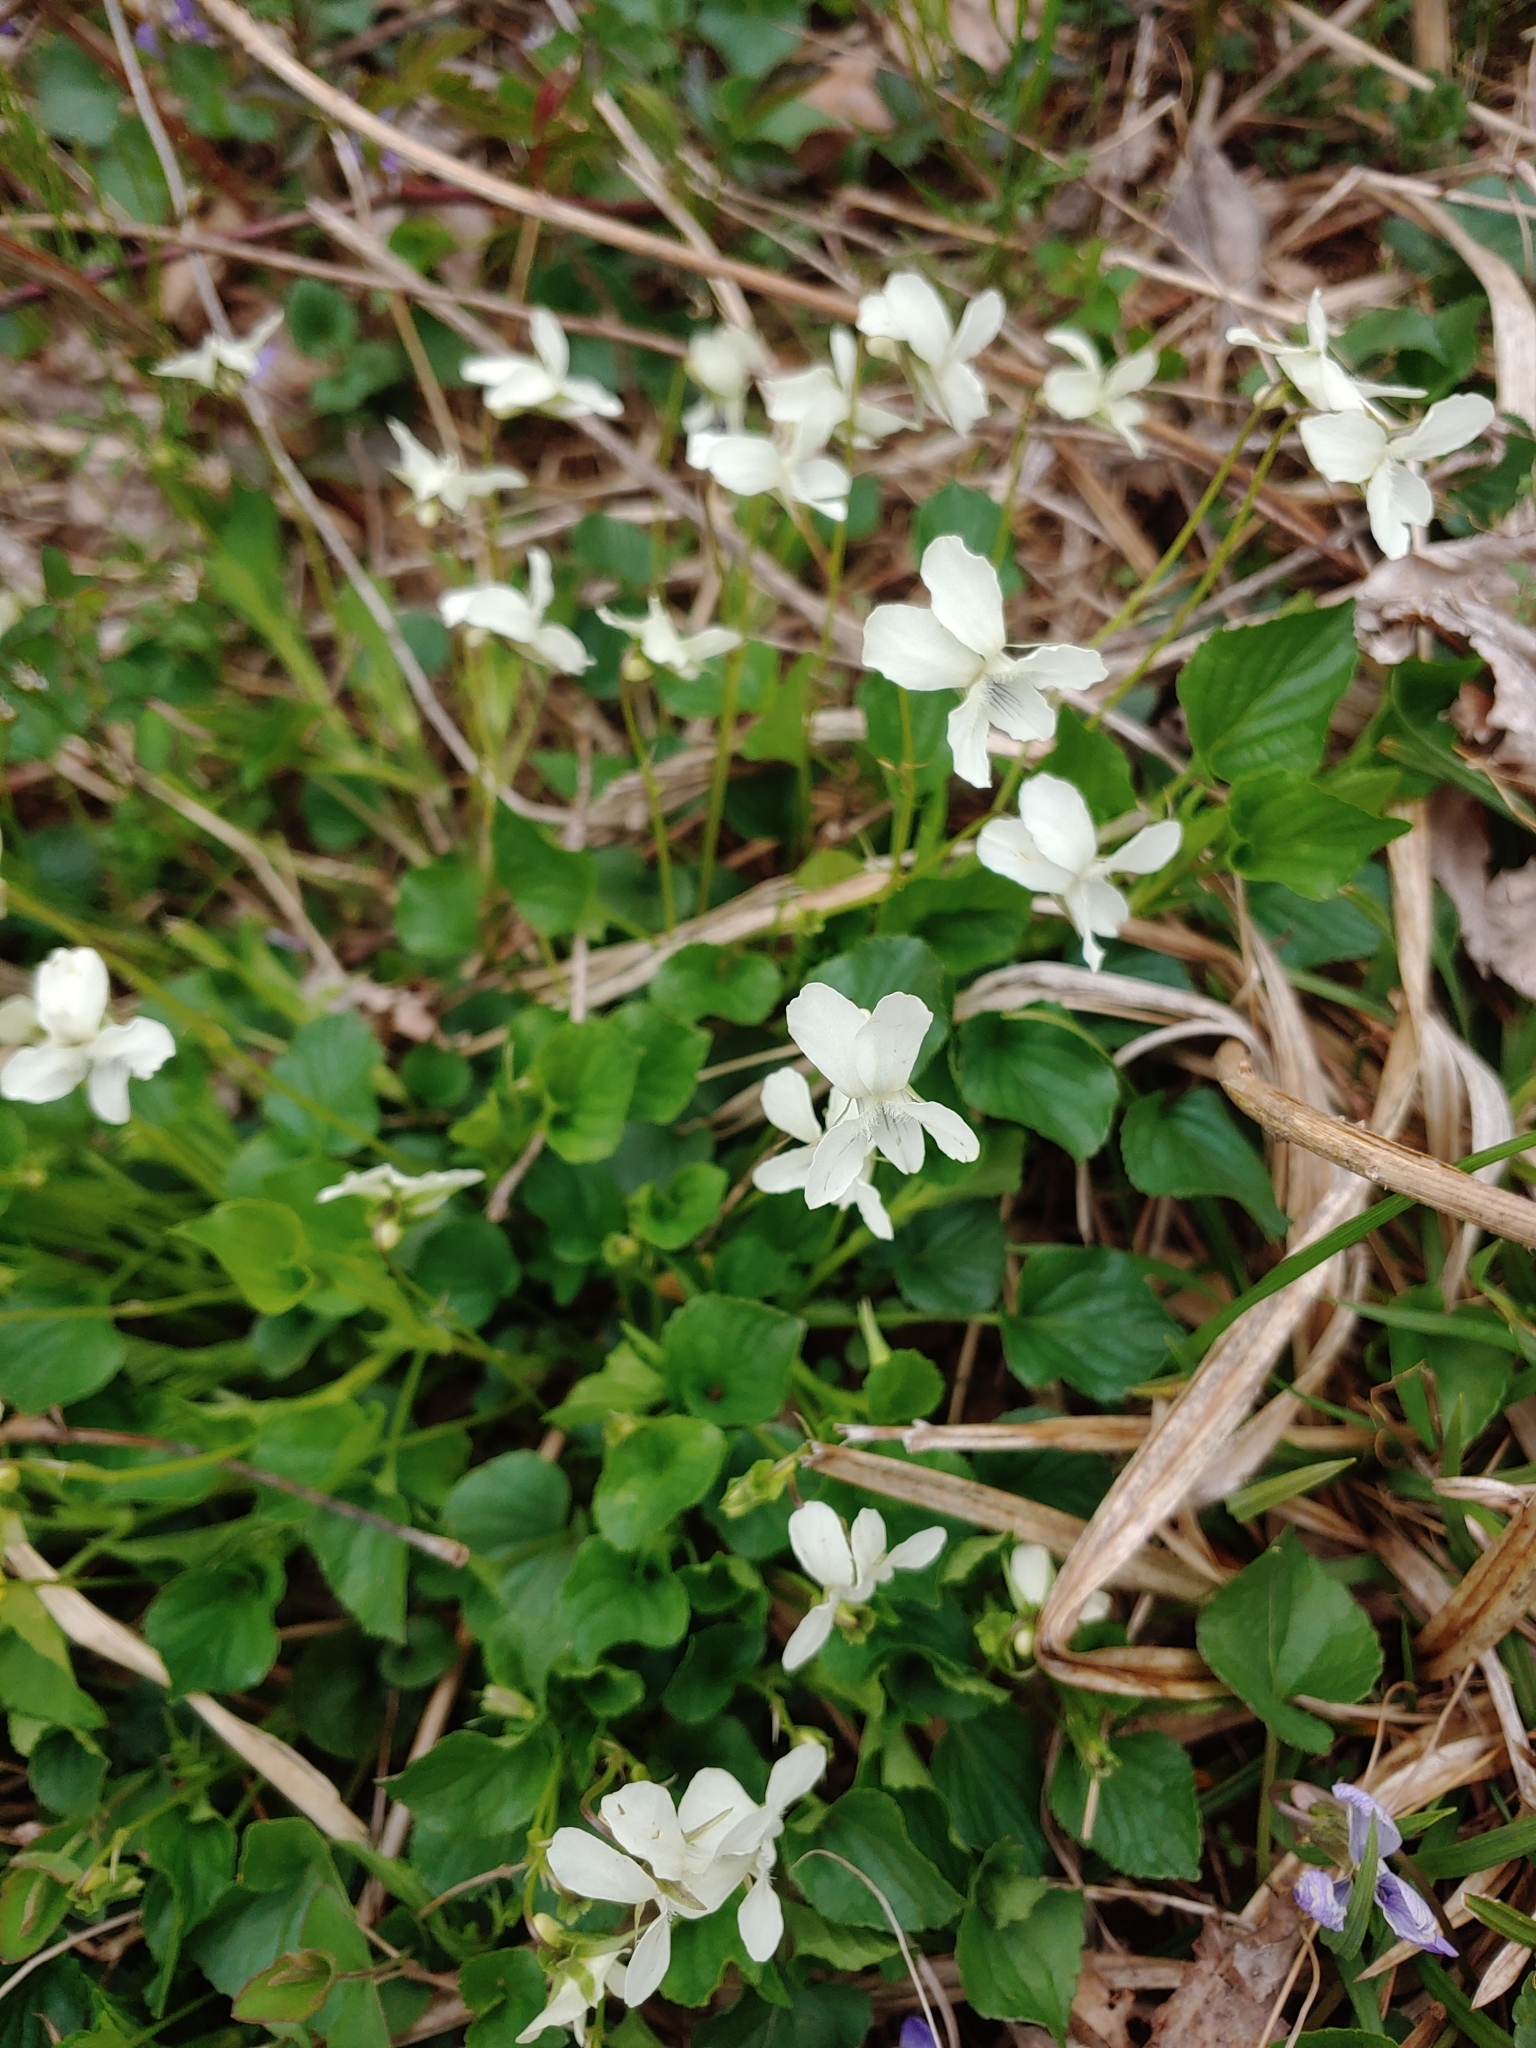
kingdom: Plantae
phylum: Tracheophyta
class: Magnoliopsida
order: Malpighiales
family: Violaceae
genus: Viola
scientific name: Viola striata
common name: Cream violet
